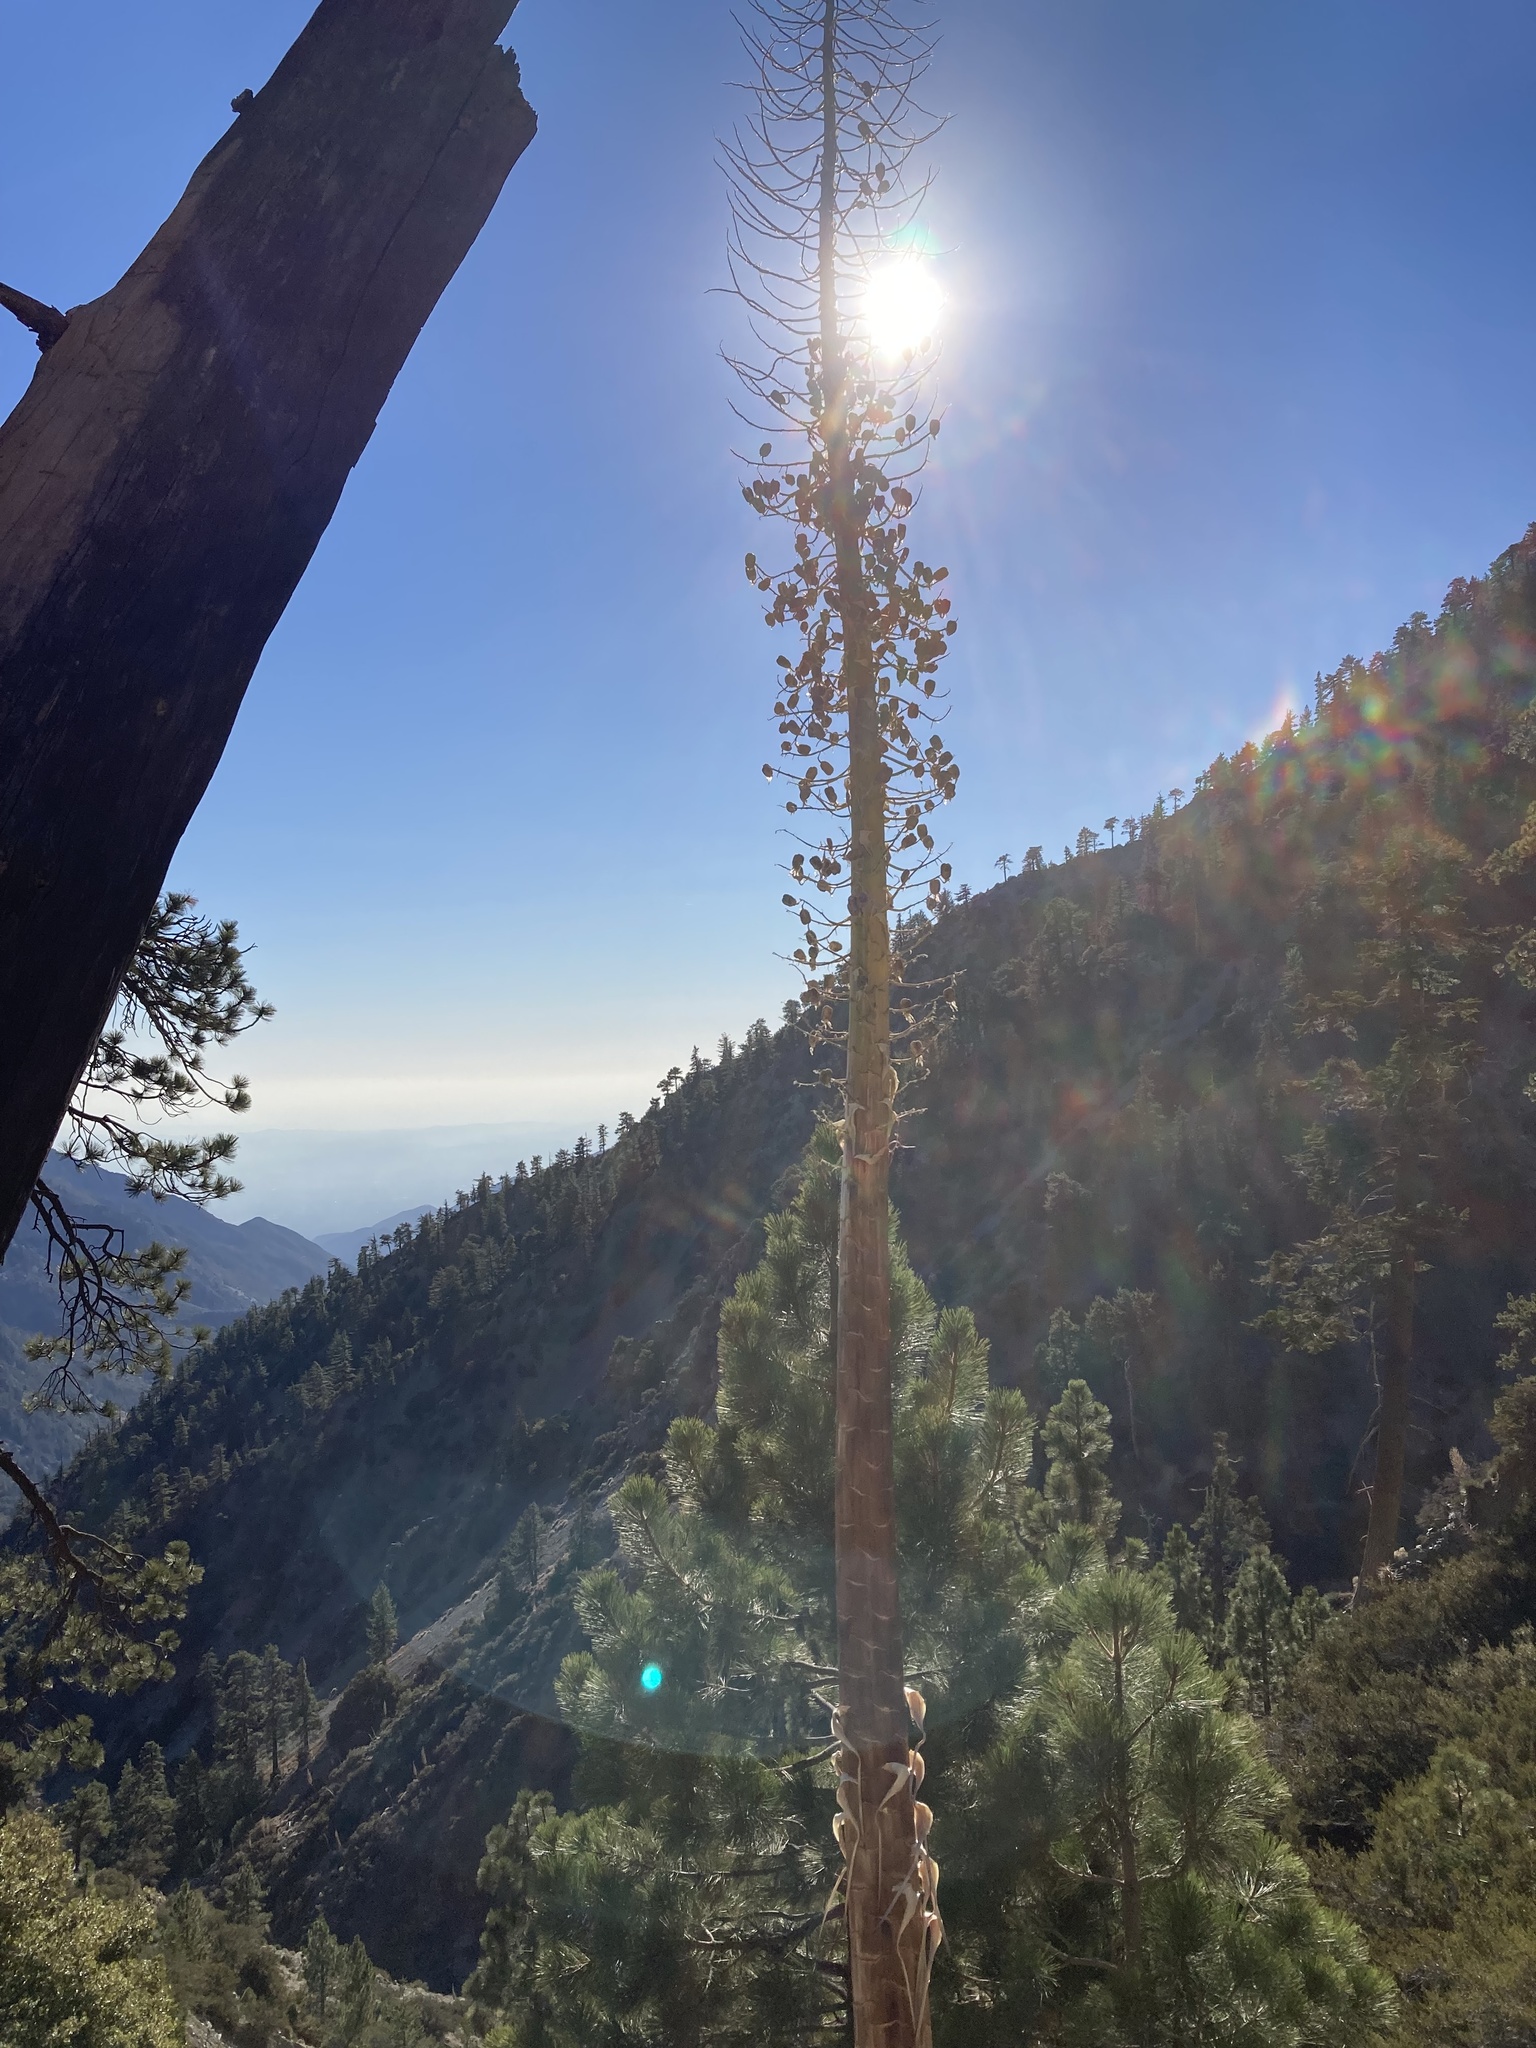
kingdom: Plantae
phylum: Tracheophyta
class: Liliopsida
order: Asparagales
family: Asparagaceae
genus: Hesperoyucca
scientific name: Hesperoyucca whipplei
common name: Our lord's-candle
